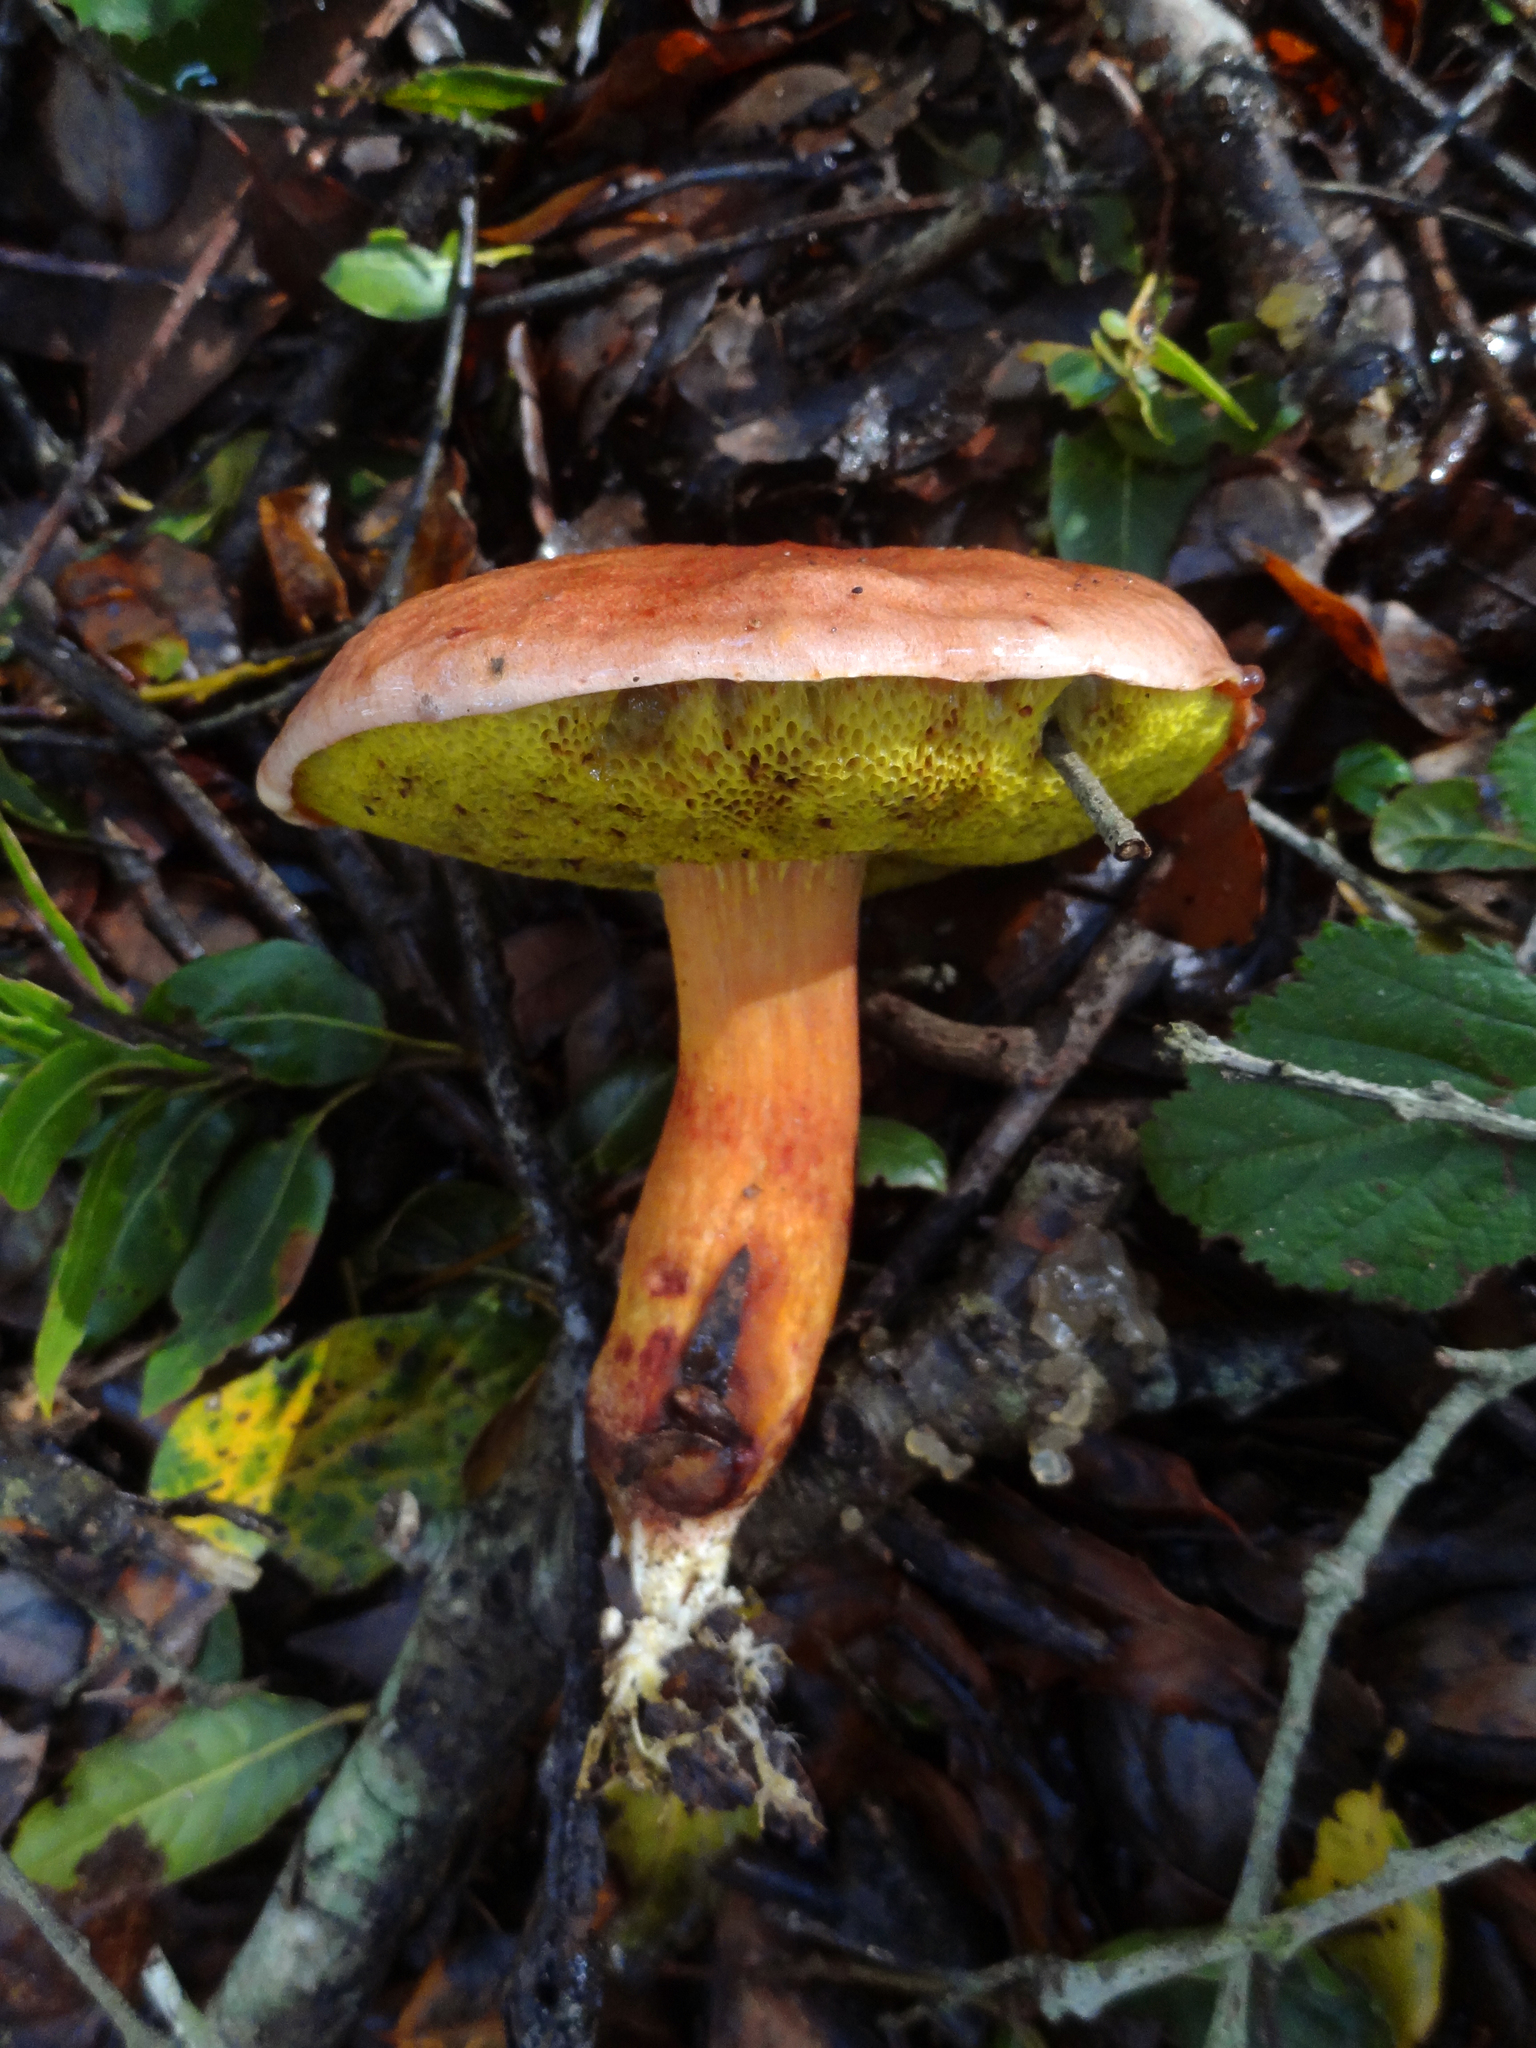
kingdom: Fungi
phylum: Basidiomycota
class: Agaricomycetes
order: Boletales
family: Boletaceae
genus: Aureoboletus
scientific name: Aureoboletus flaviporus
